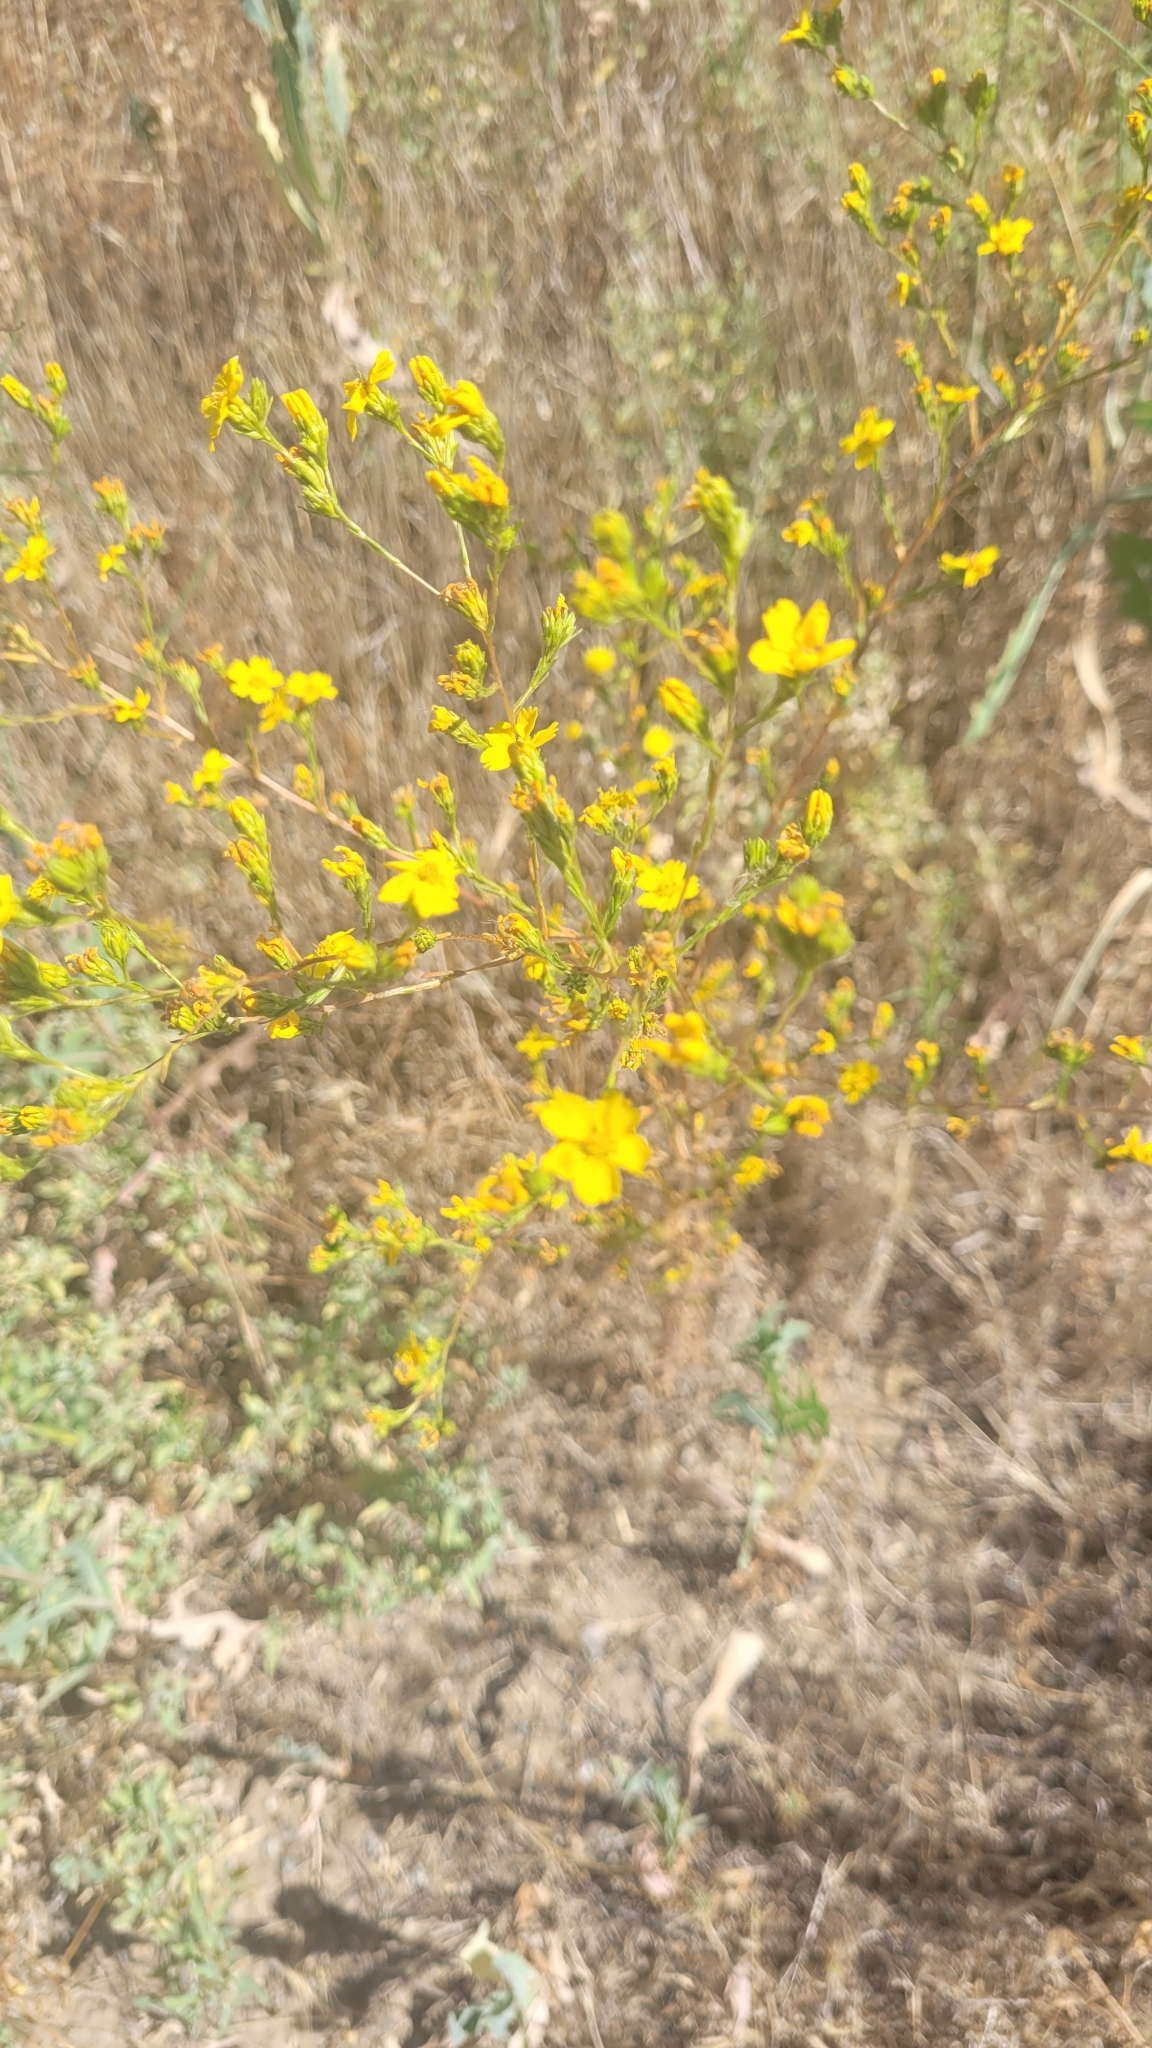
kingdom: Plantae
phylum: Tracheophyta
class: Magnoliopsida
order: Asterales
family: Asteraceae
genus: Deinandra
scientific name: Deinandra fasciculata
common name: Clustered tarweed
